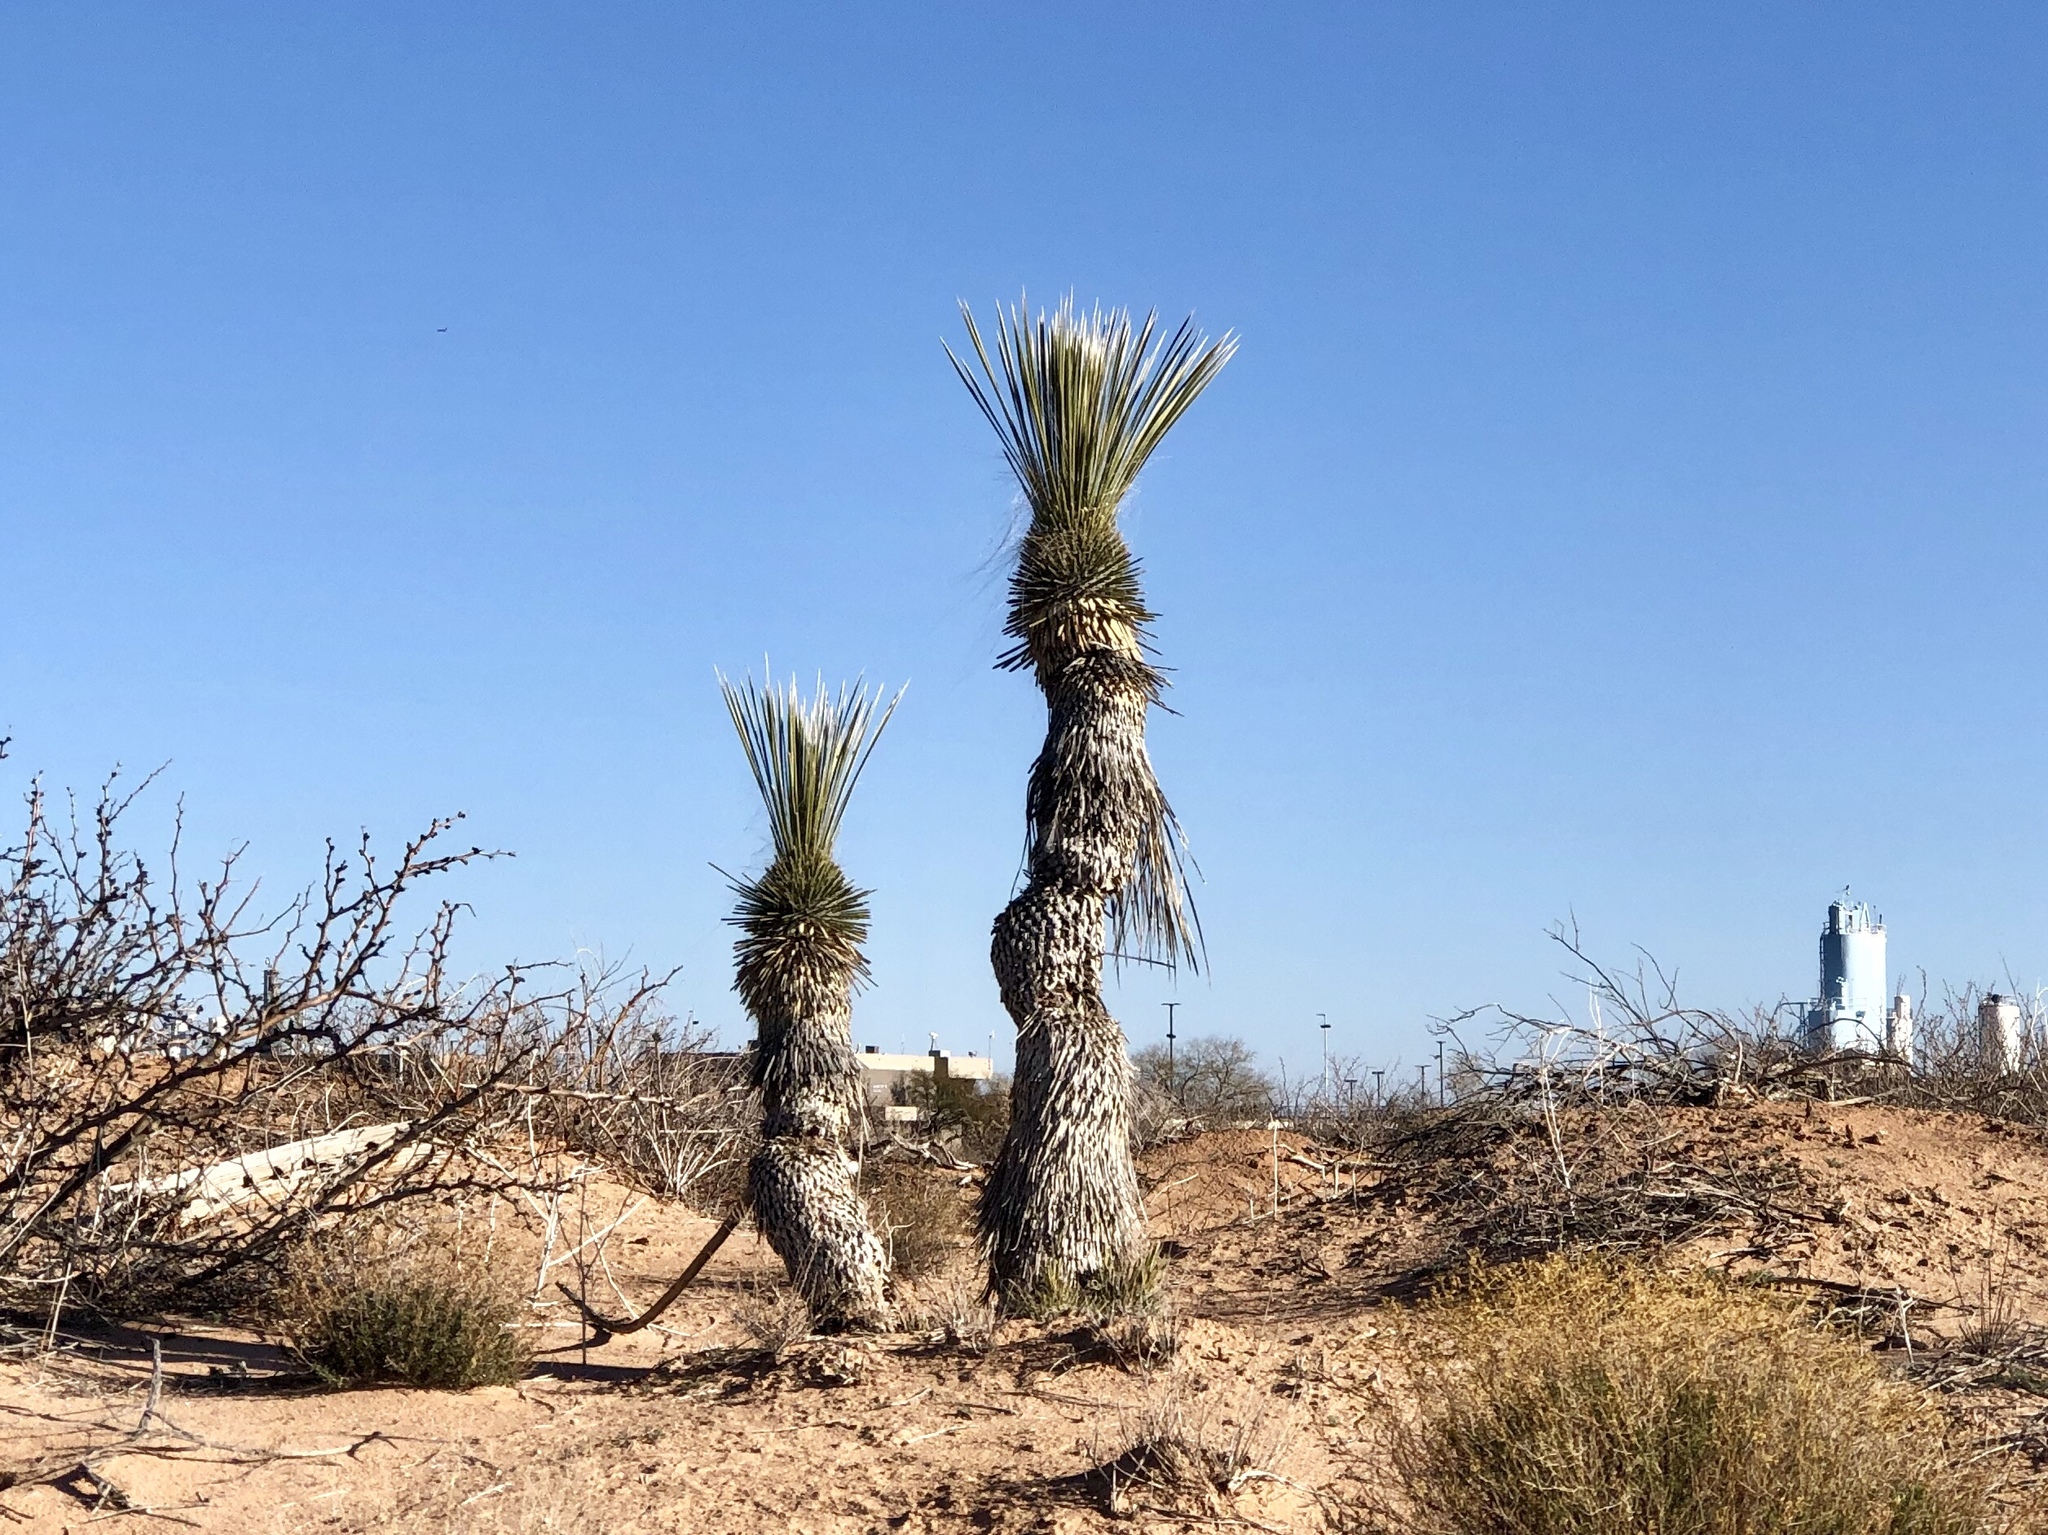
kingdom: Plantae
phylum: Tracheophyta
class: Liliopsida
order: Asparagales
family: Asparagaceae
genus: Yucca
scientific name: Yucca elata
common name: Palmella
